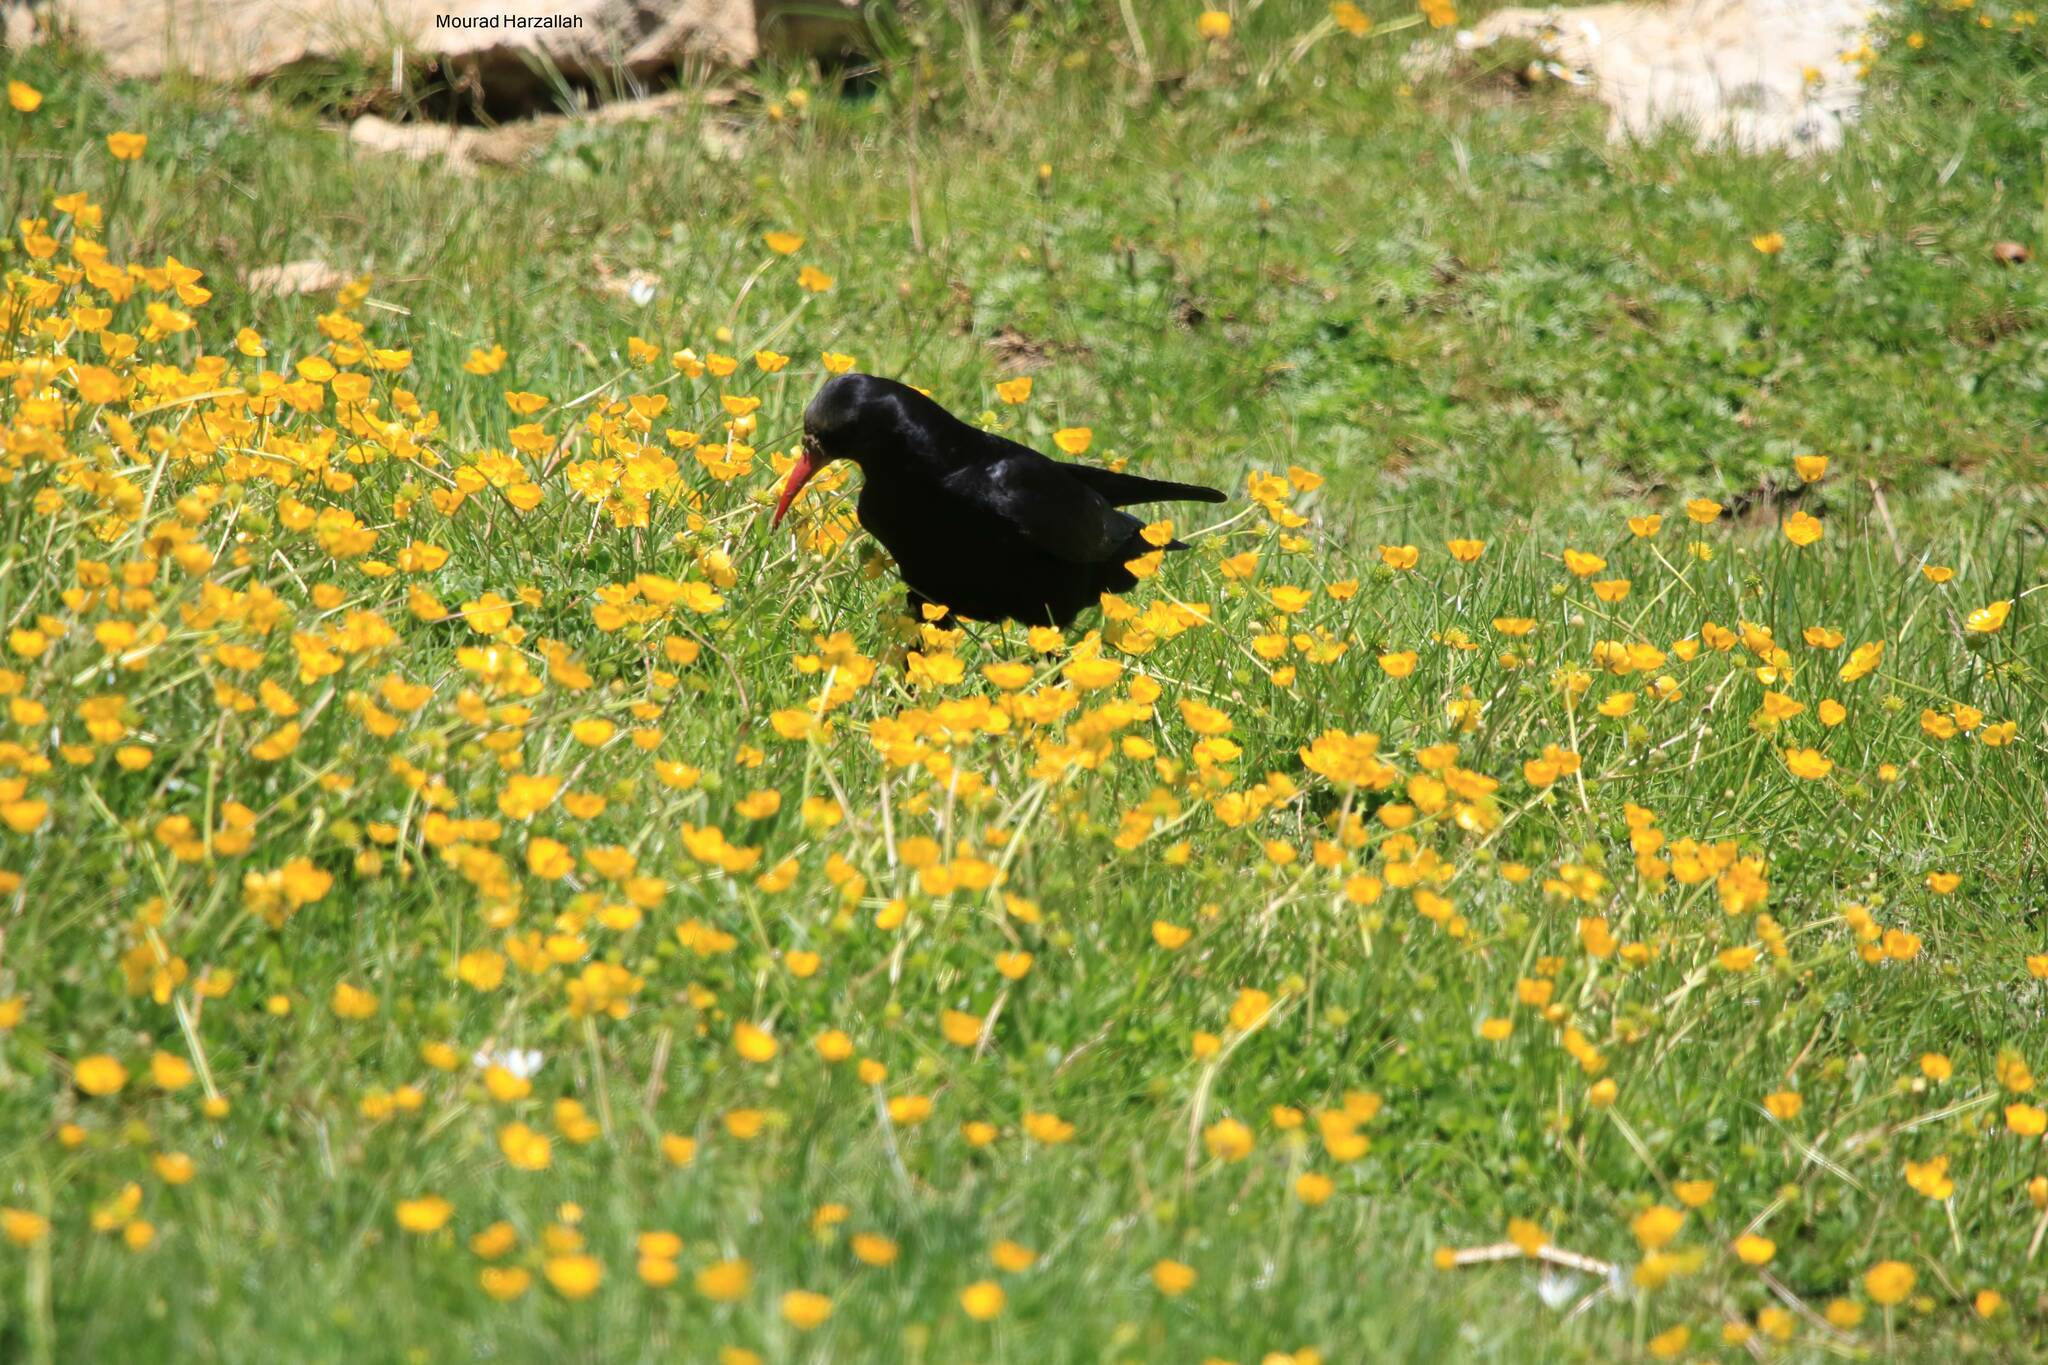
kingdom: Animalia
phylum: Chordata
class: Aves
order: Passeriformes
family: Corvidae
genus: Pyrrhocorax
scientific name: Pyrrhocorax pyrrhocorax
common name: Red-billed chough
